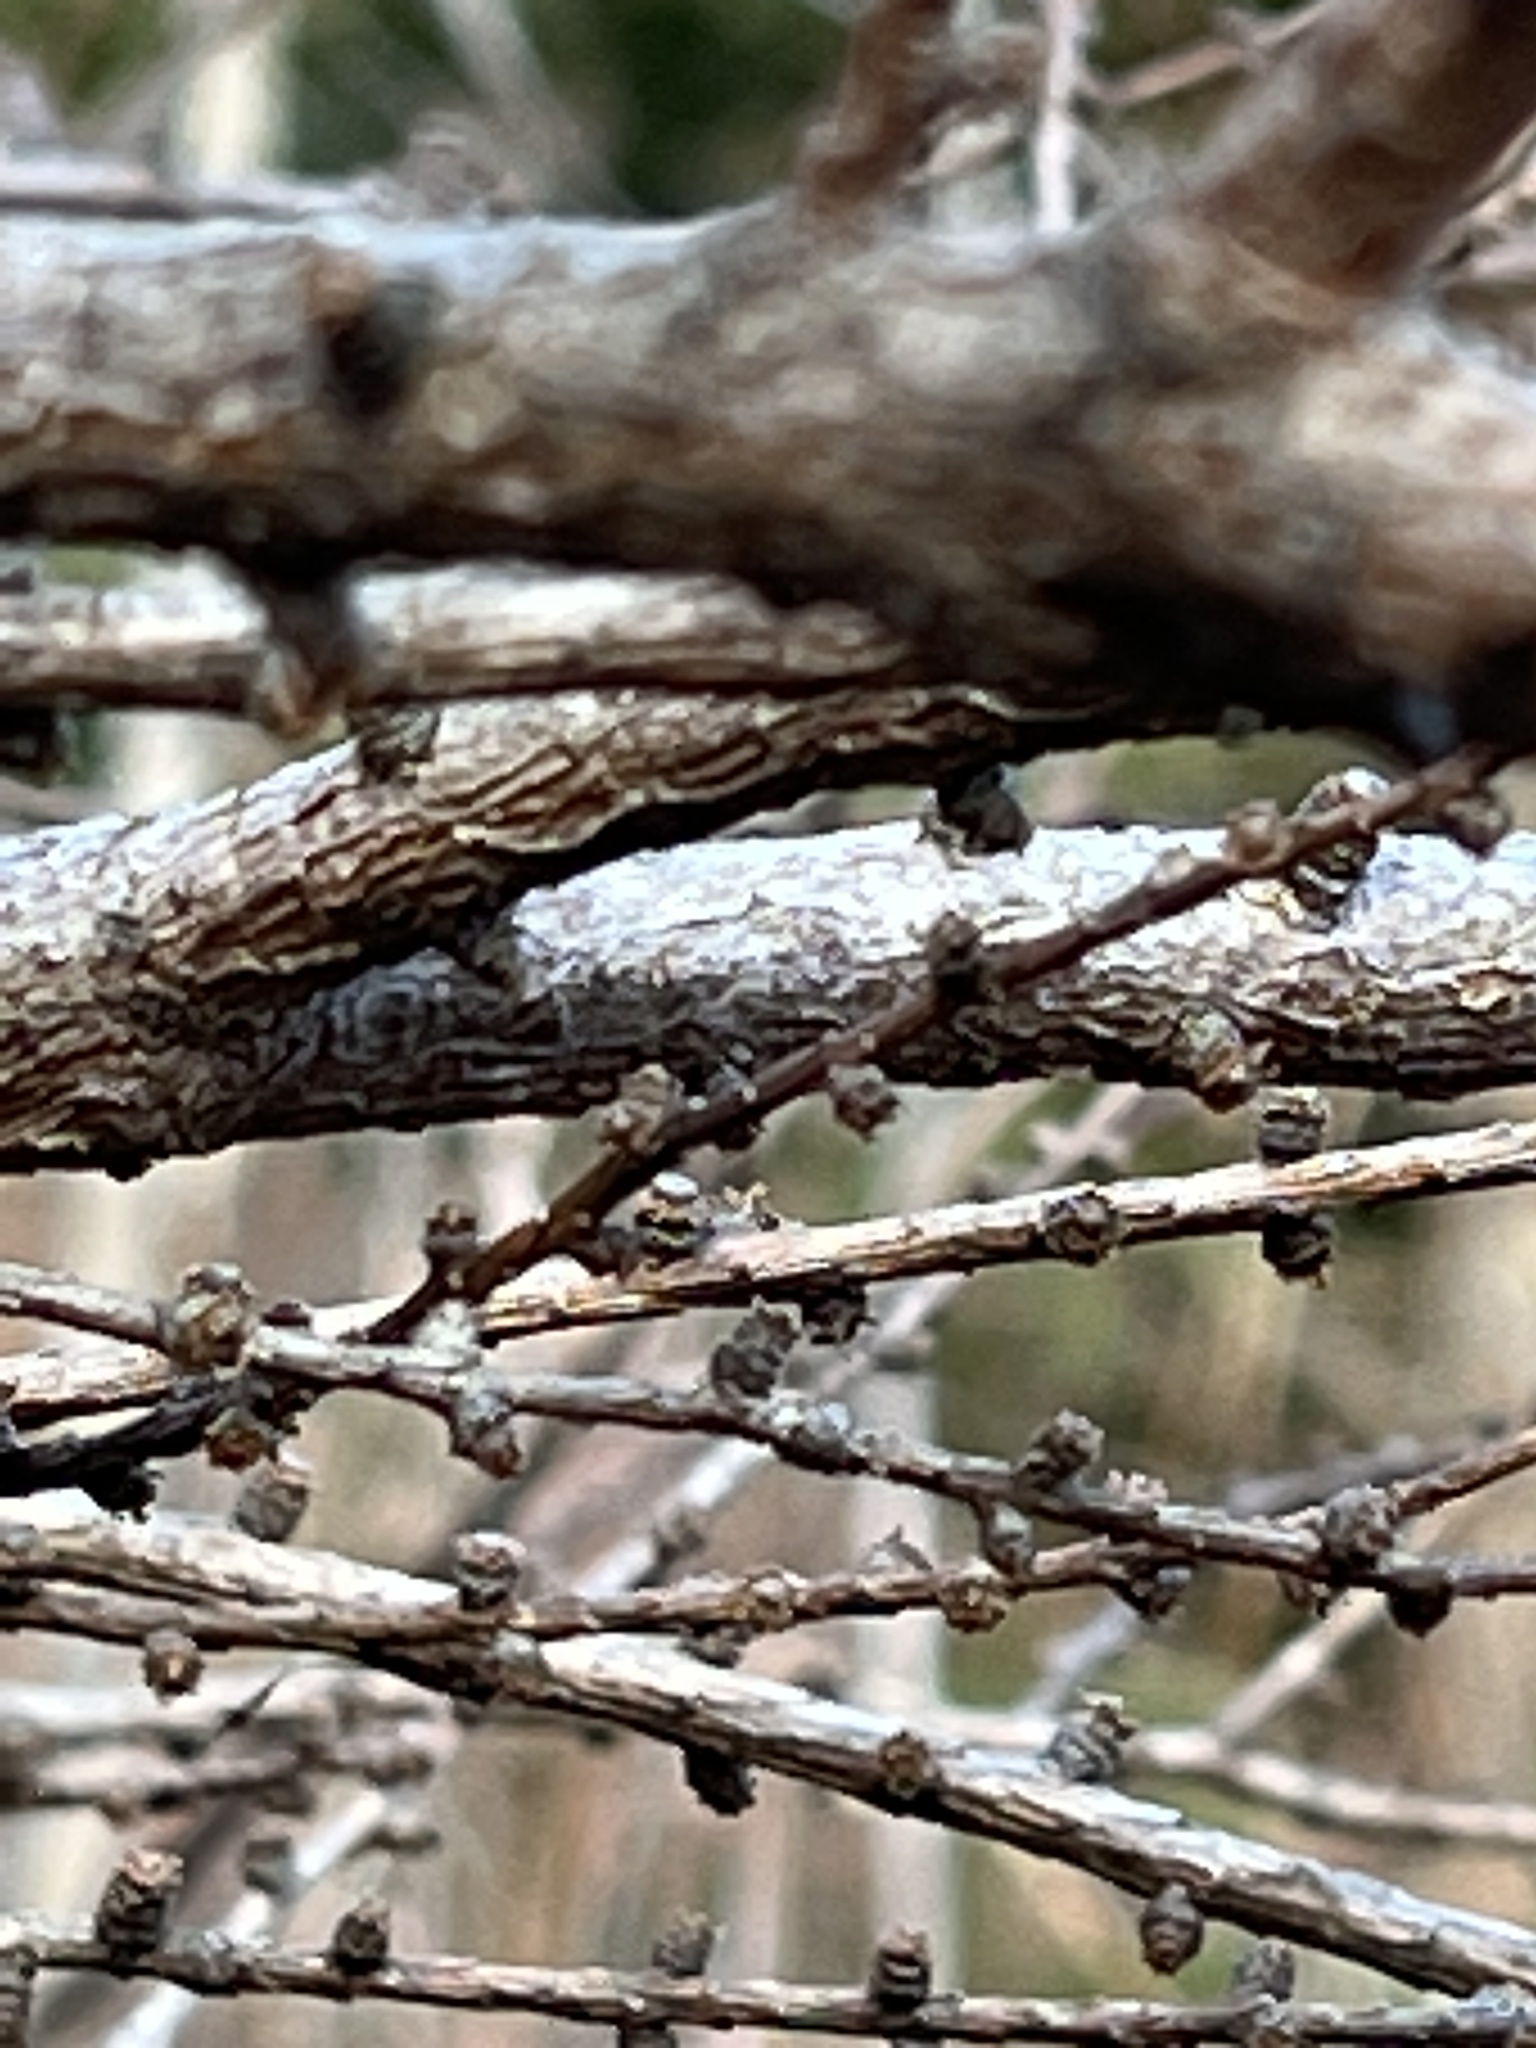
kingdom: Plantae
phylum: Tracheophyta
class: Pinopsida
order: Pinales
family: Pinaceae
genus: Larix
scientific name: Larix laricina
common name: American larch
